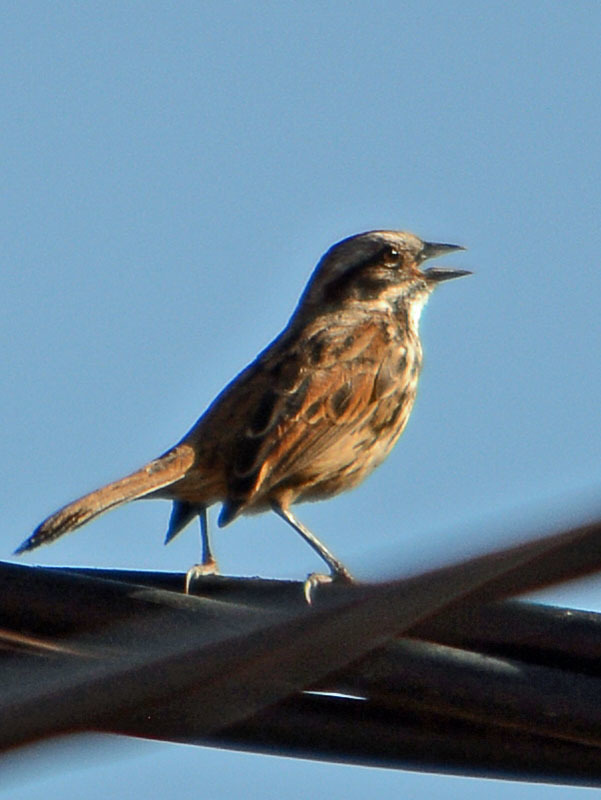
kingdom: Animalia
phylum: Chordata
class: Aves
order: Passeriformes
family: Passerellidae
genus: Melospiza
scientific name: Melospiza melodia
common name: Song sparrow
